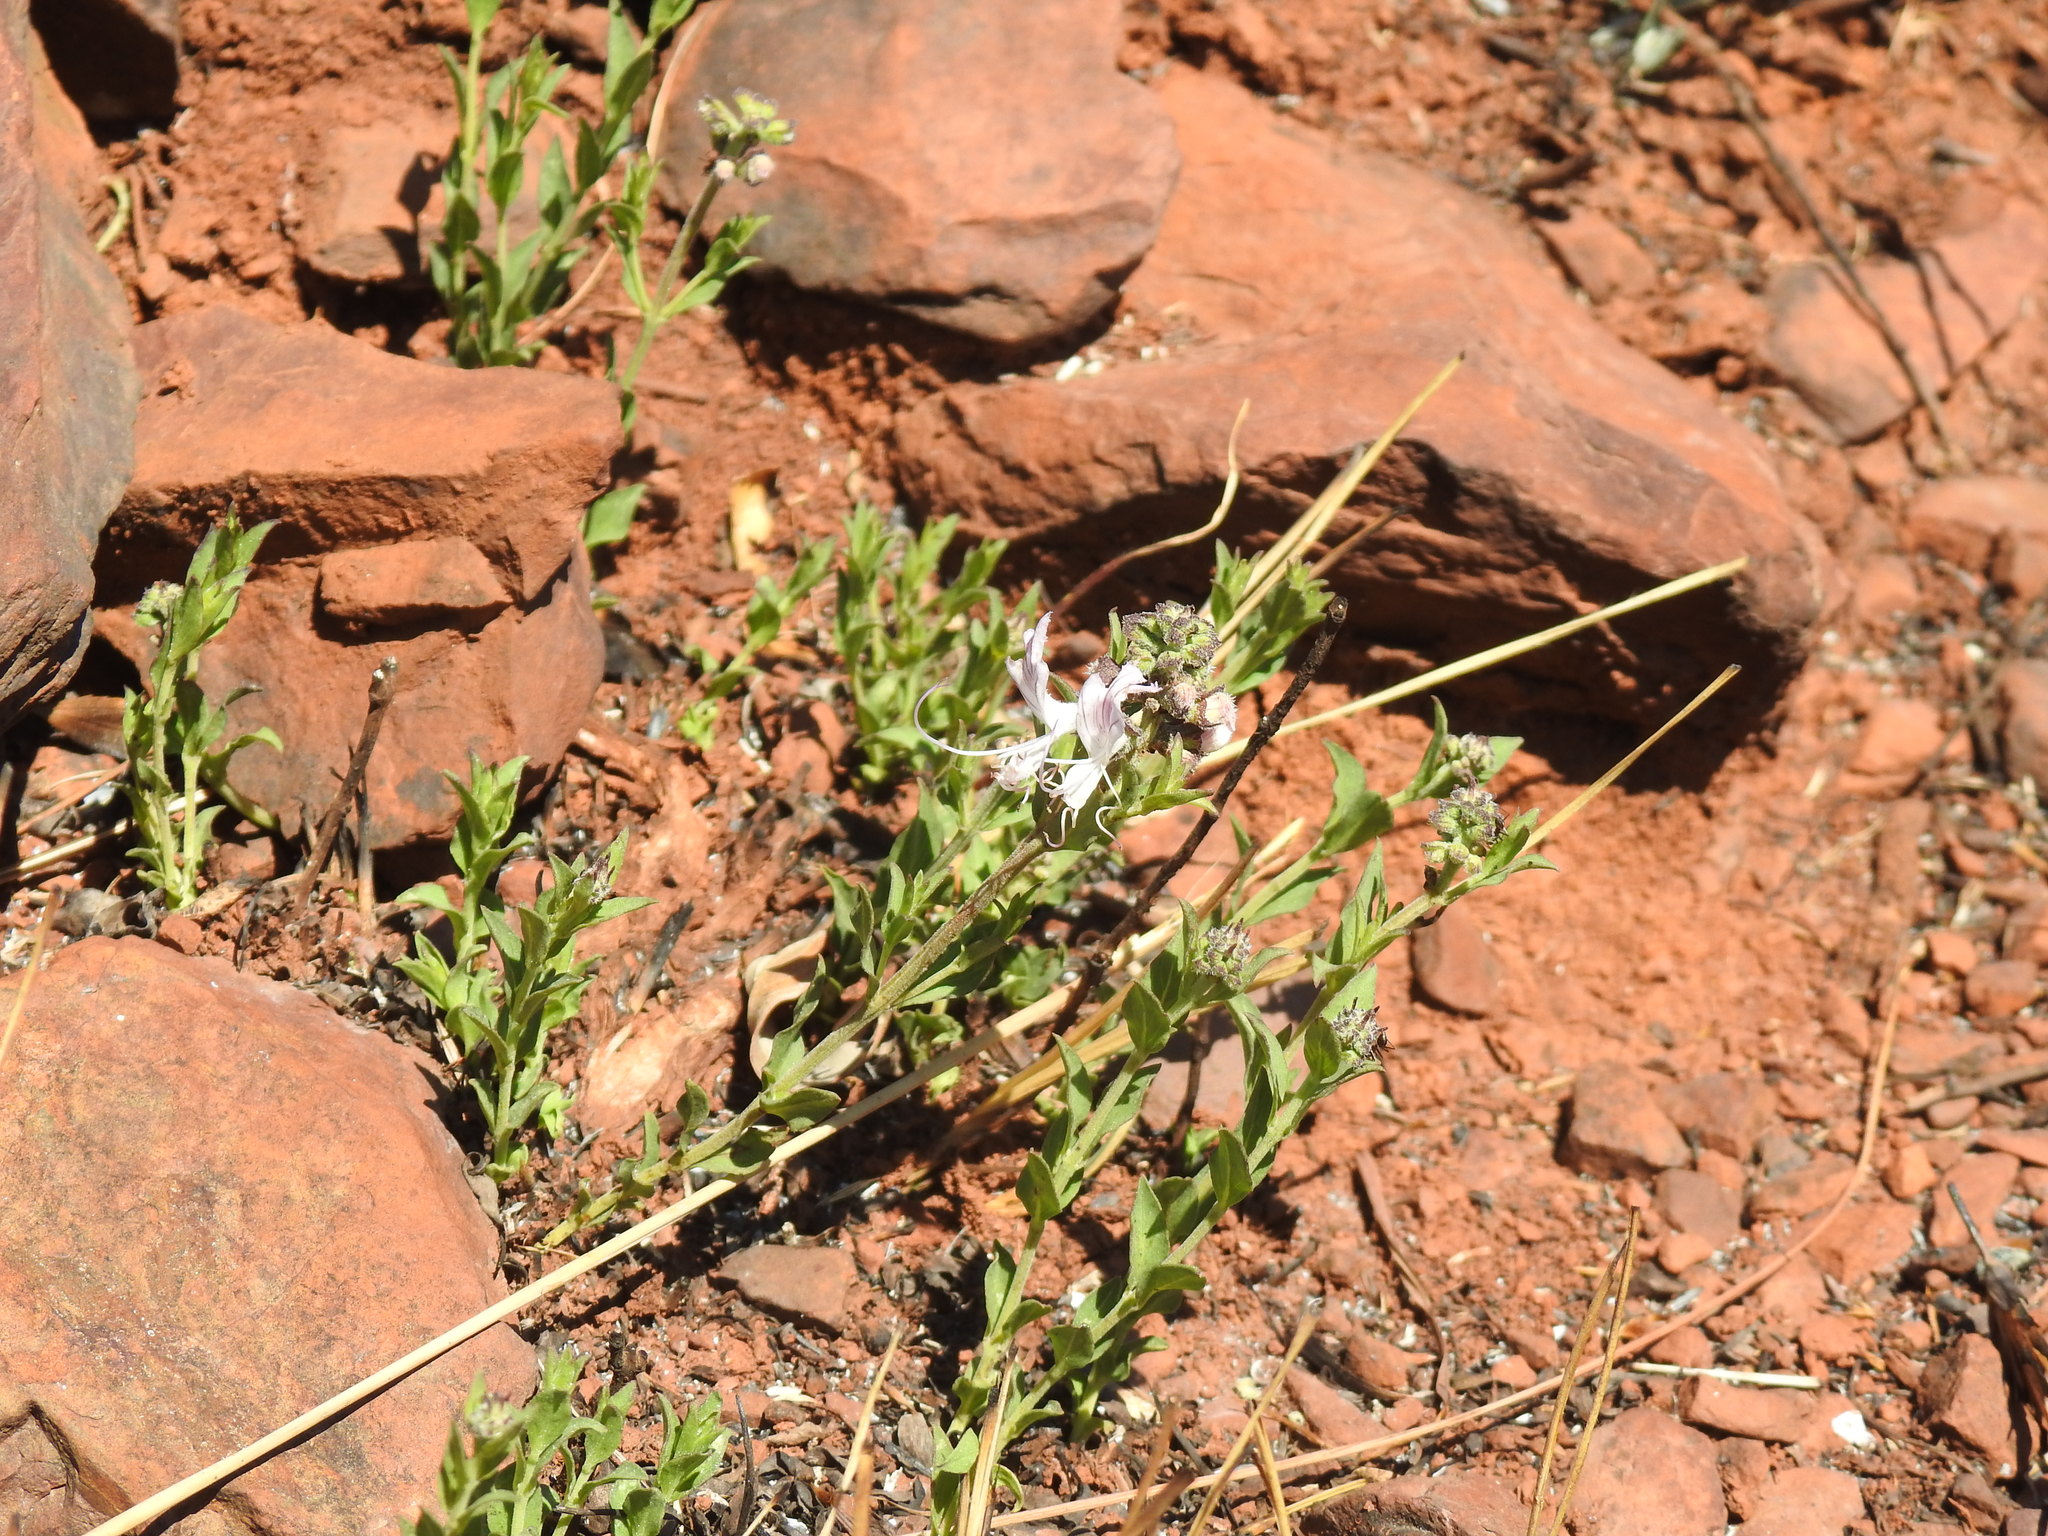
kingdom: Plantae
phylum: Tracheophyta
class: Magnoliopsida
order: Lamiales
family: Lamiaceae
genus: Ocimum
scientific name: Ocimum obovatum
